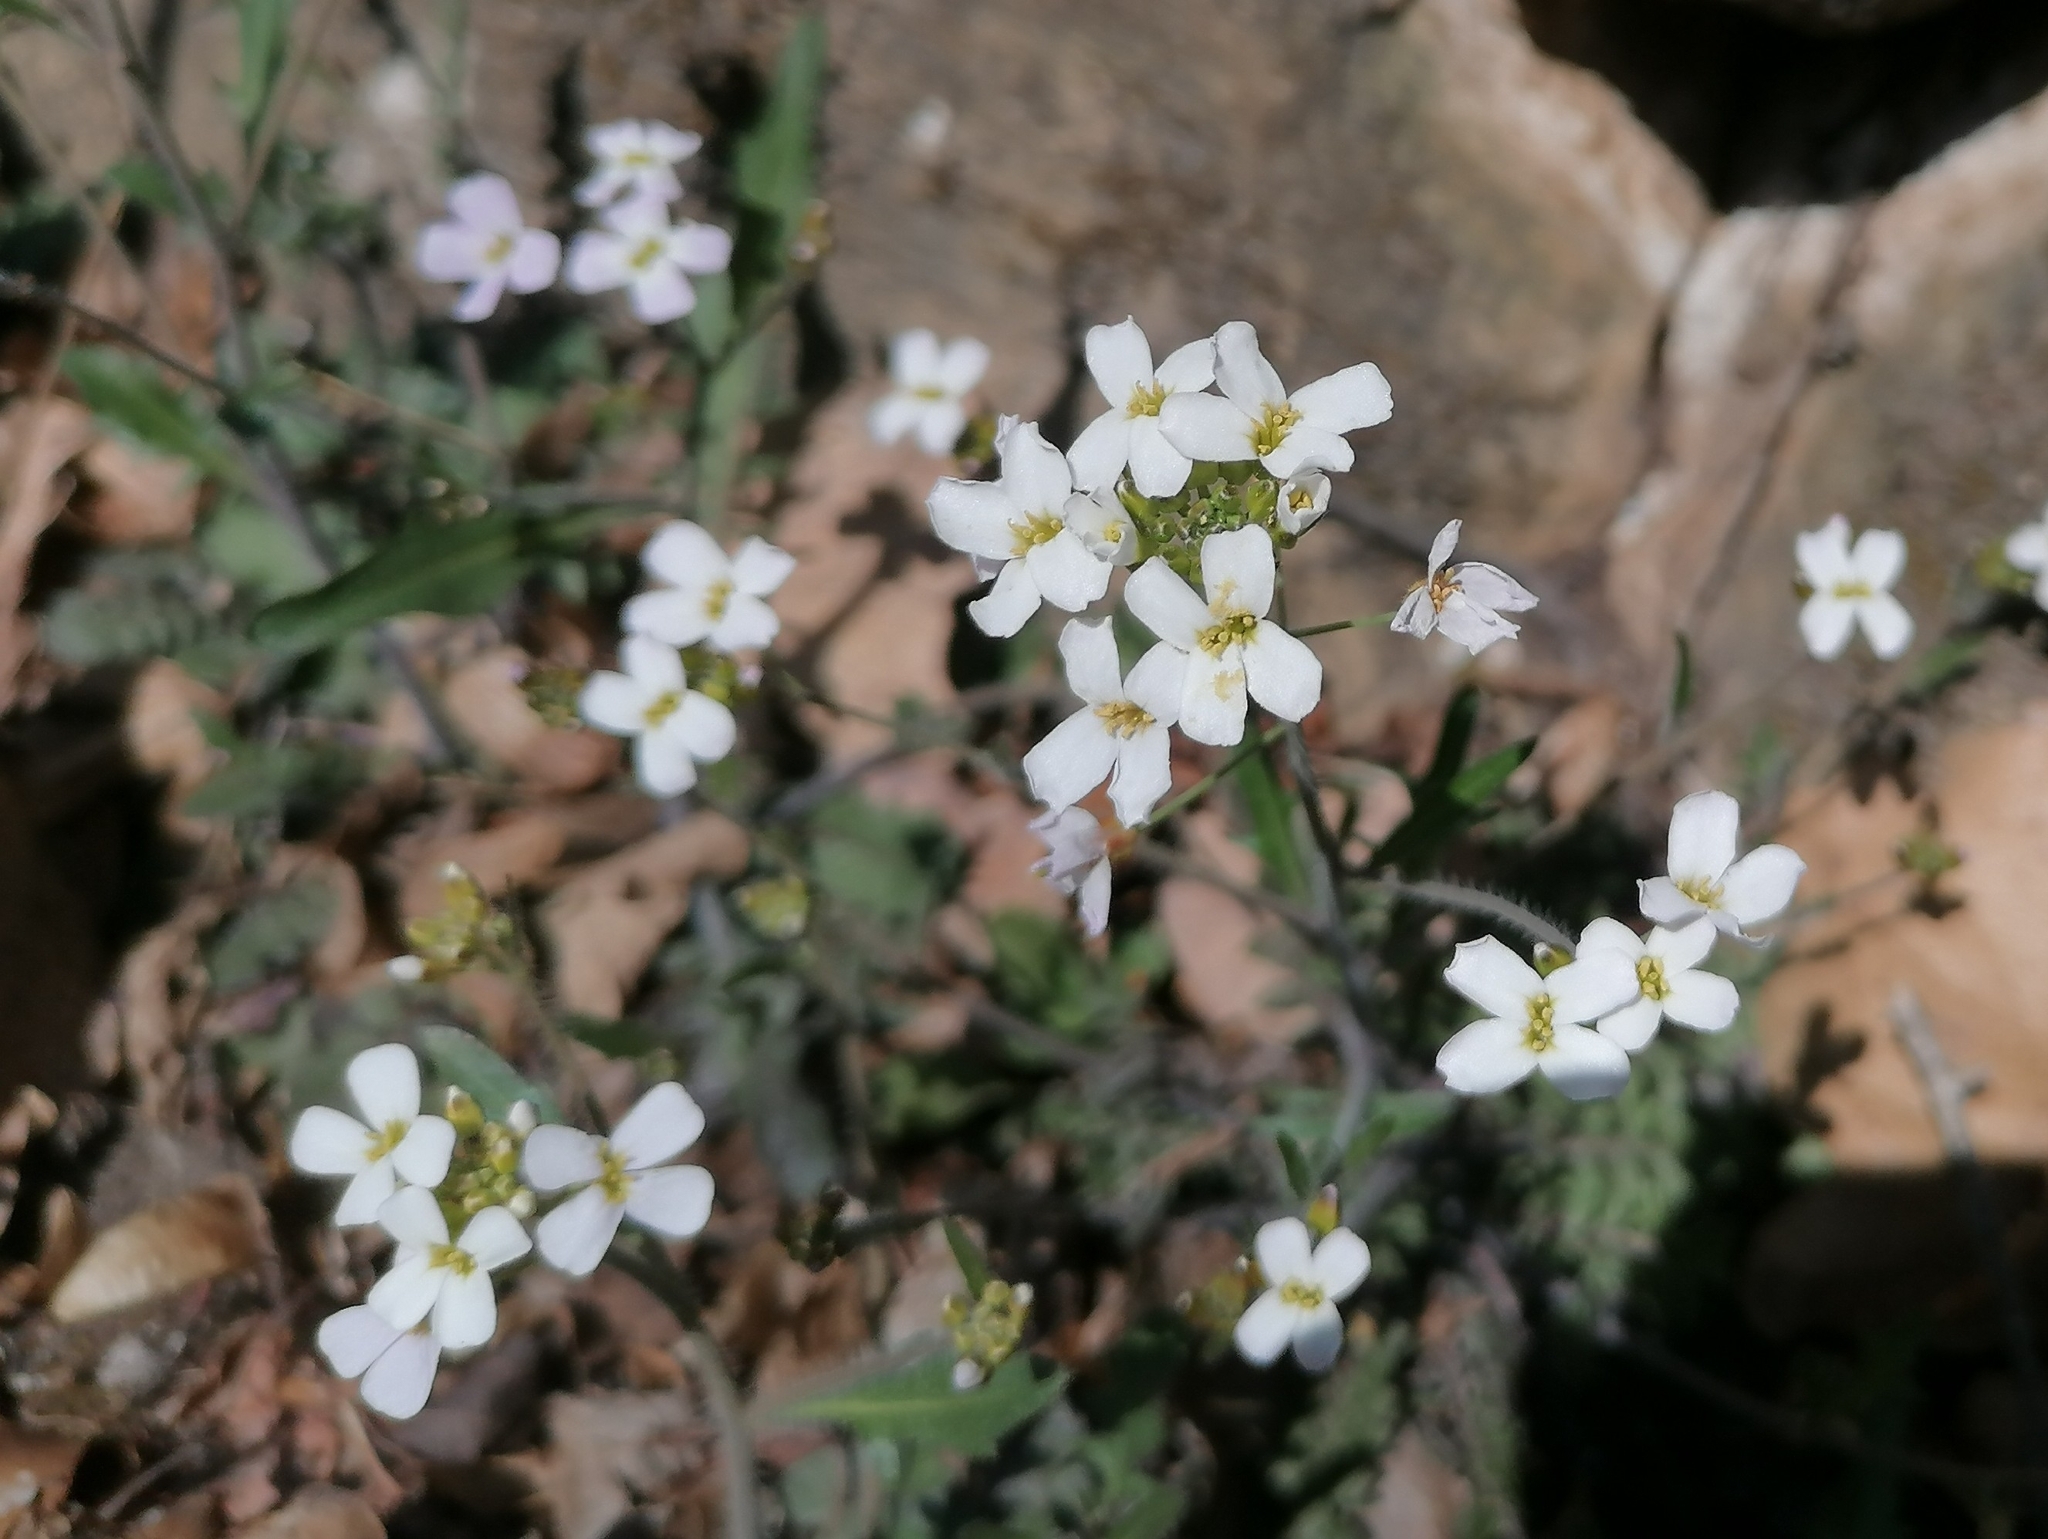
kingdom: Plantae
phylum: Tracheophyta
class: Magnoliopsida
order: Brassicales
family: Brassicaceae
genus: Arabidopsis
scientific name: Arabidopsis arenosa
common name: Sand rock-cress
